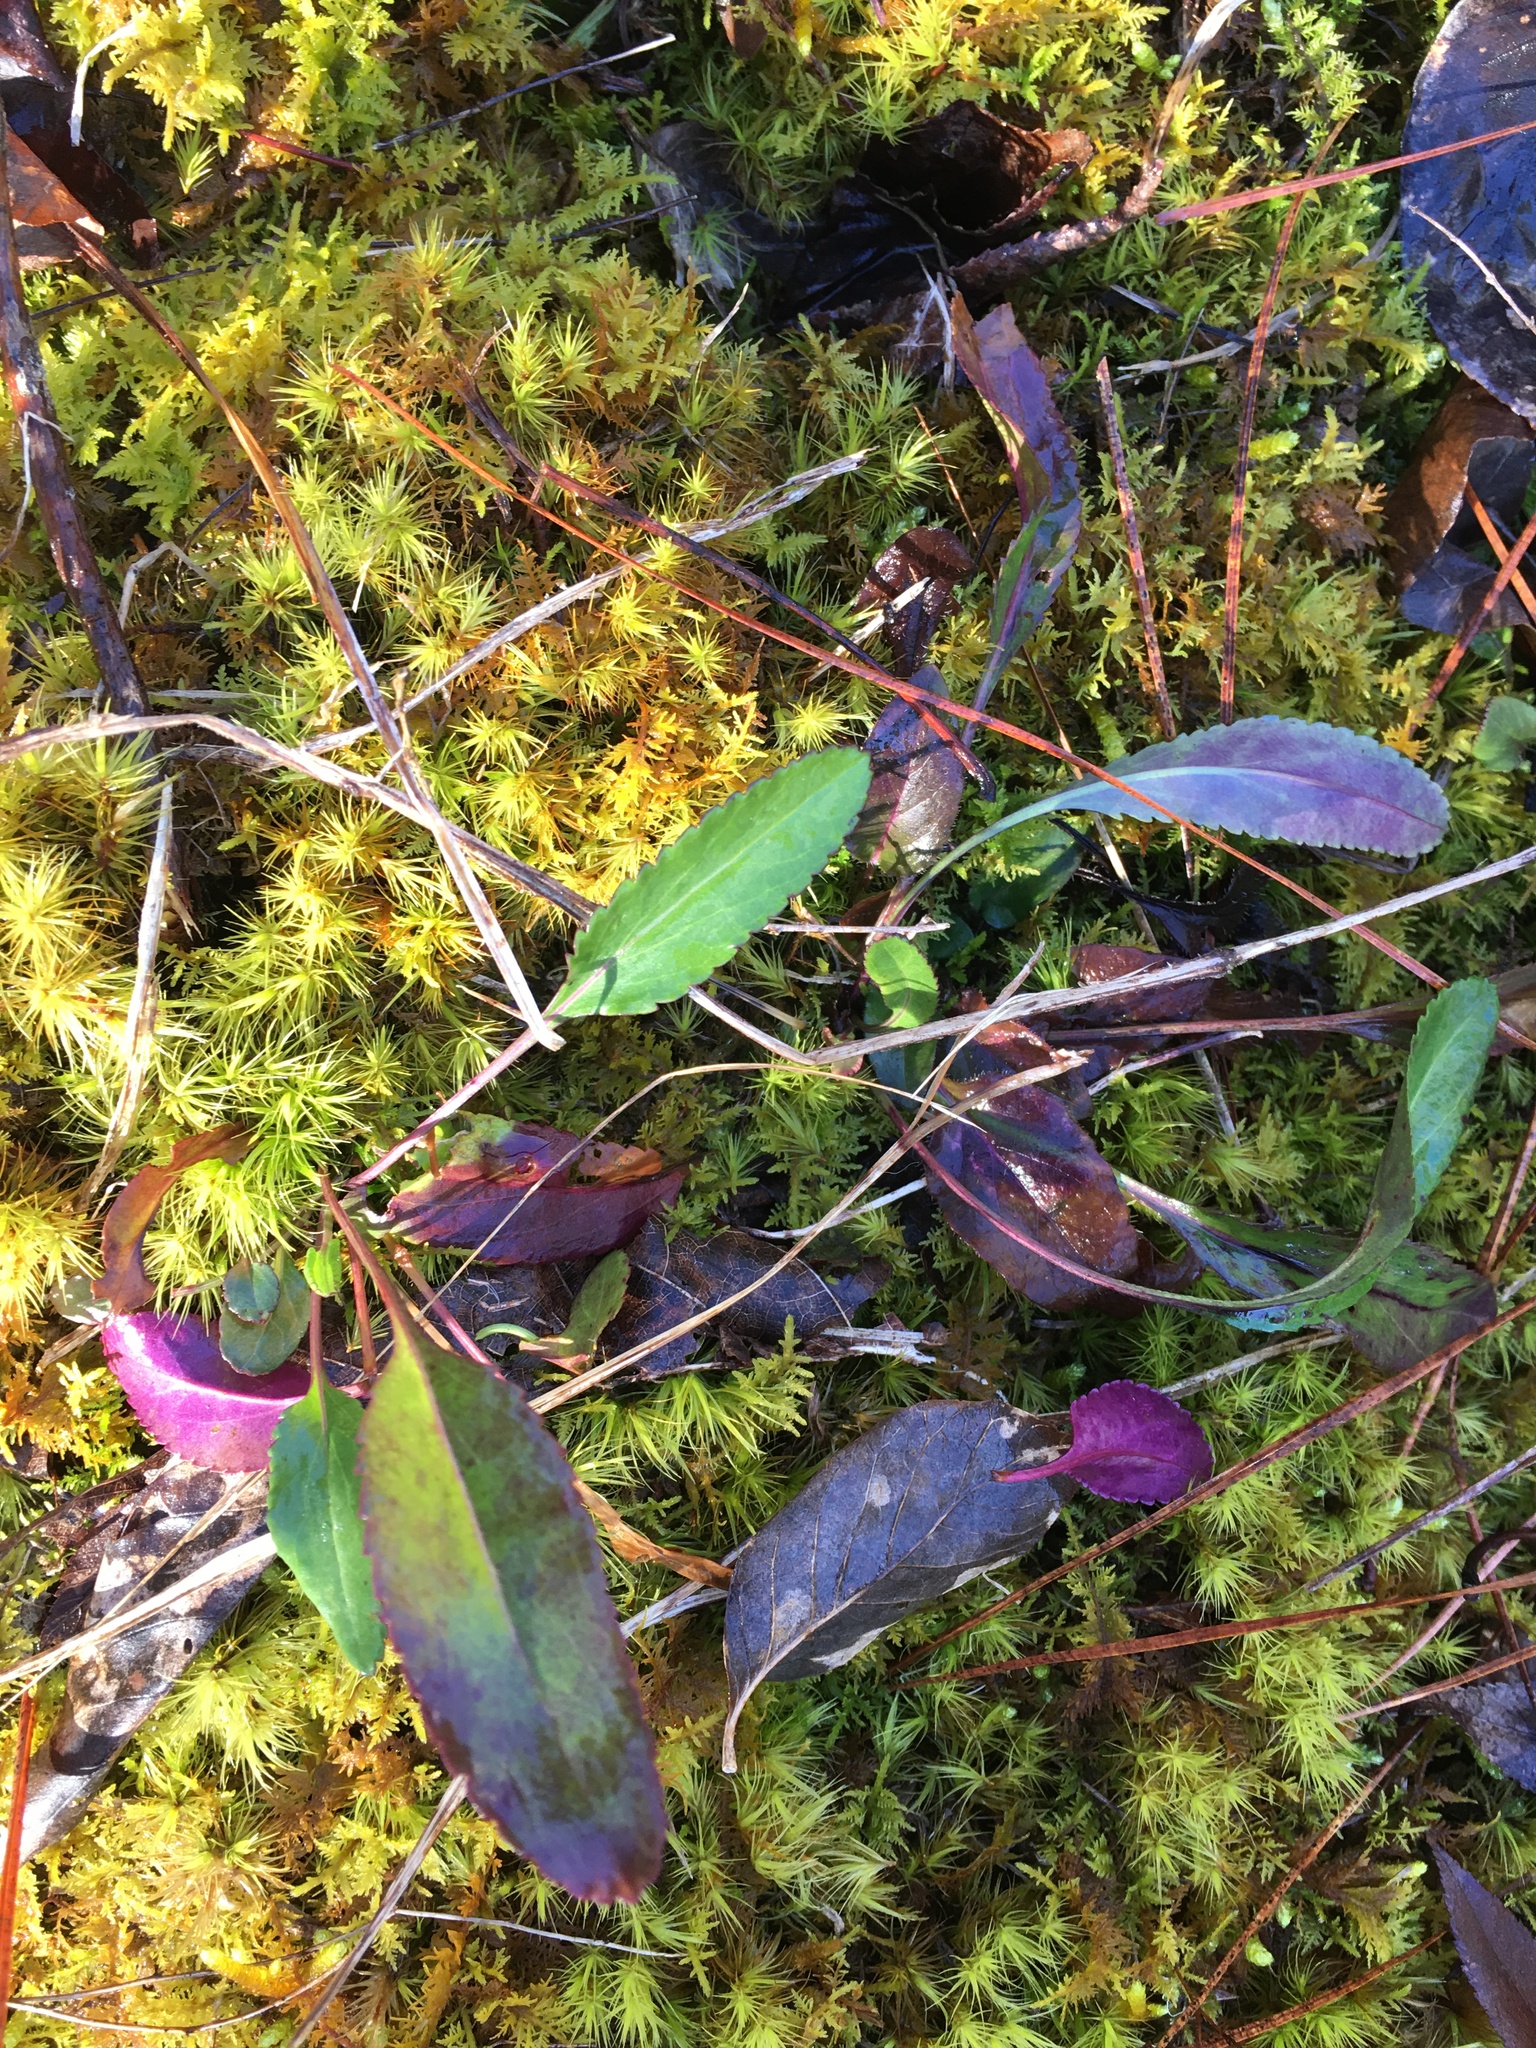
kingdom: Plantae
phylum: Tracheophyta
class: Magnoliopsida
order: Asterales
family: Asteraceae
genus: Packera
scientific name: Packera anonyma
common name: Small ragwort
